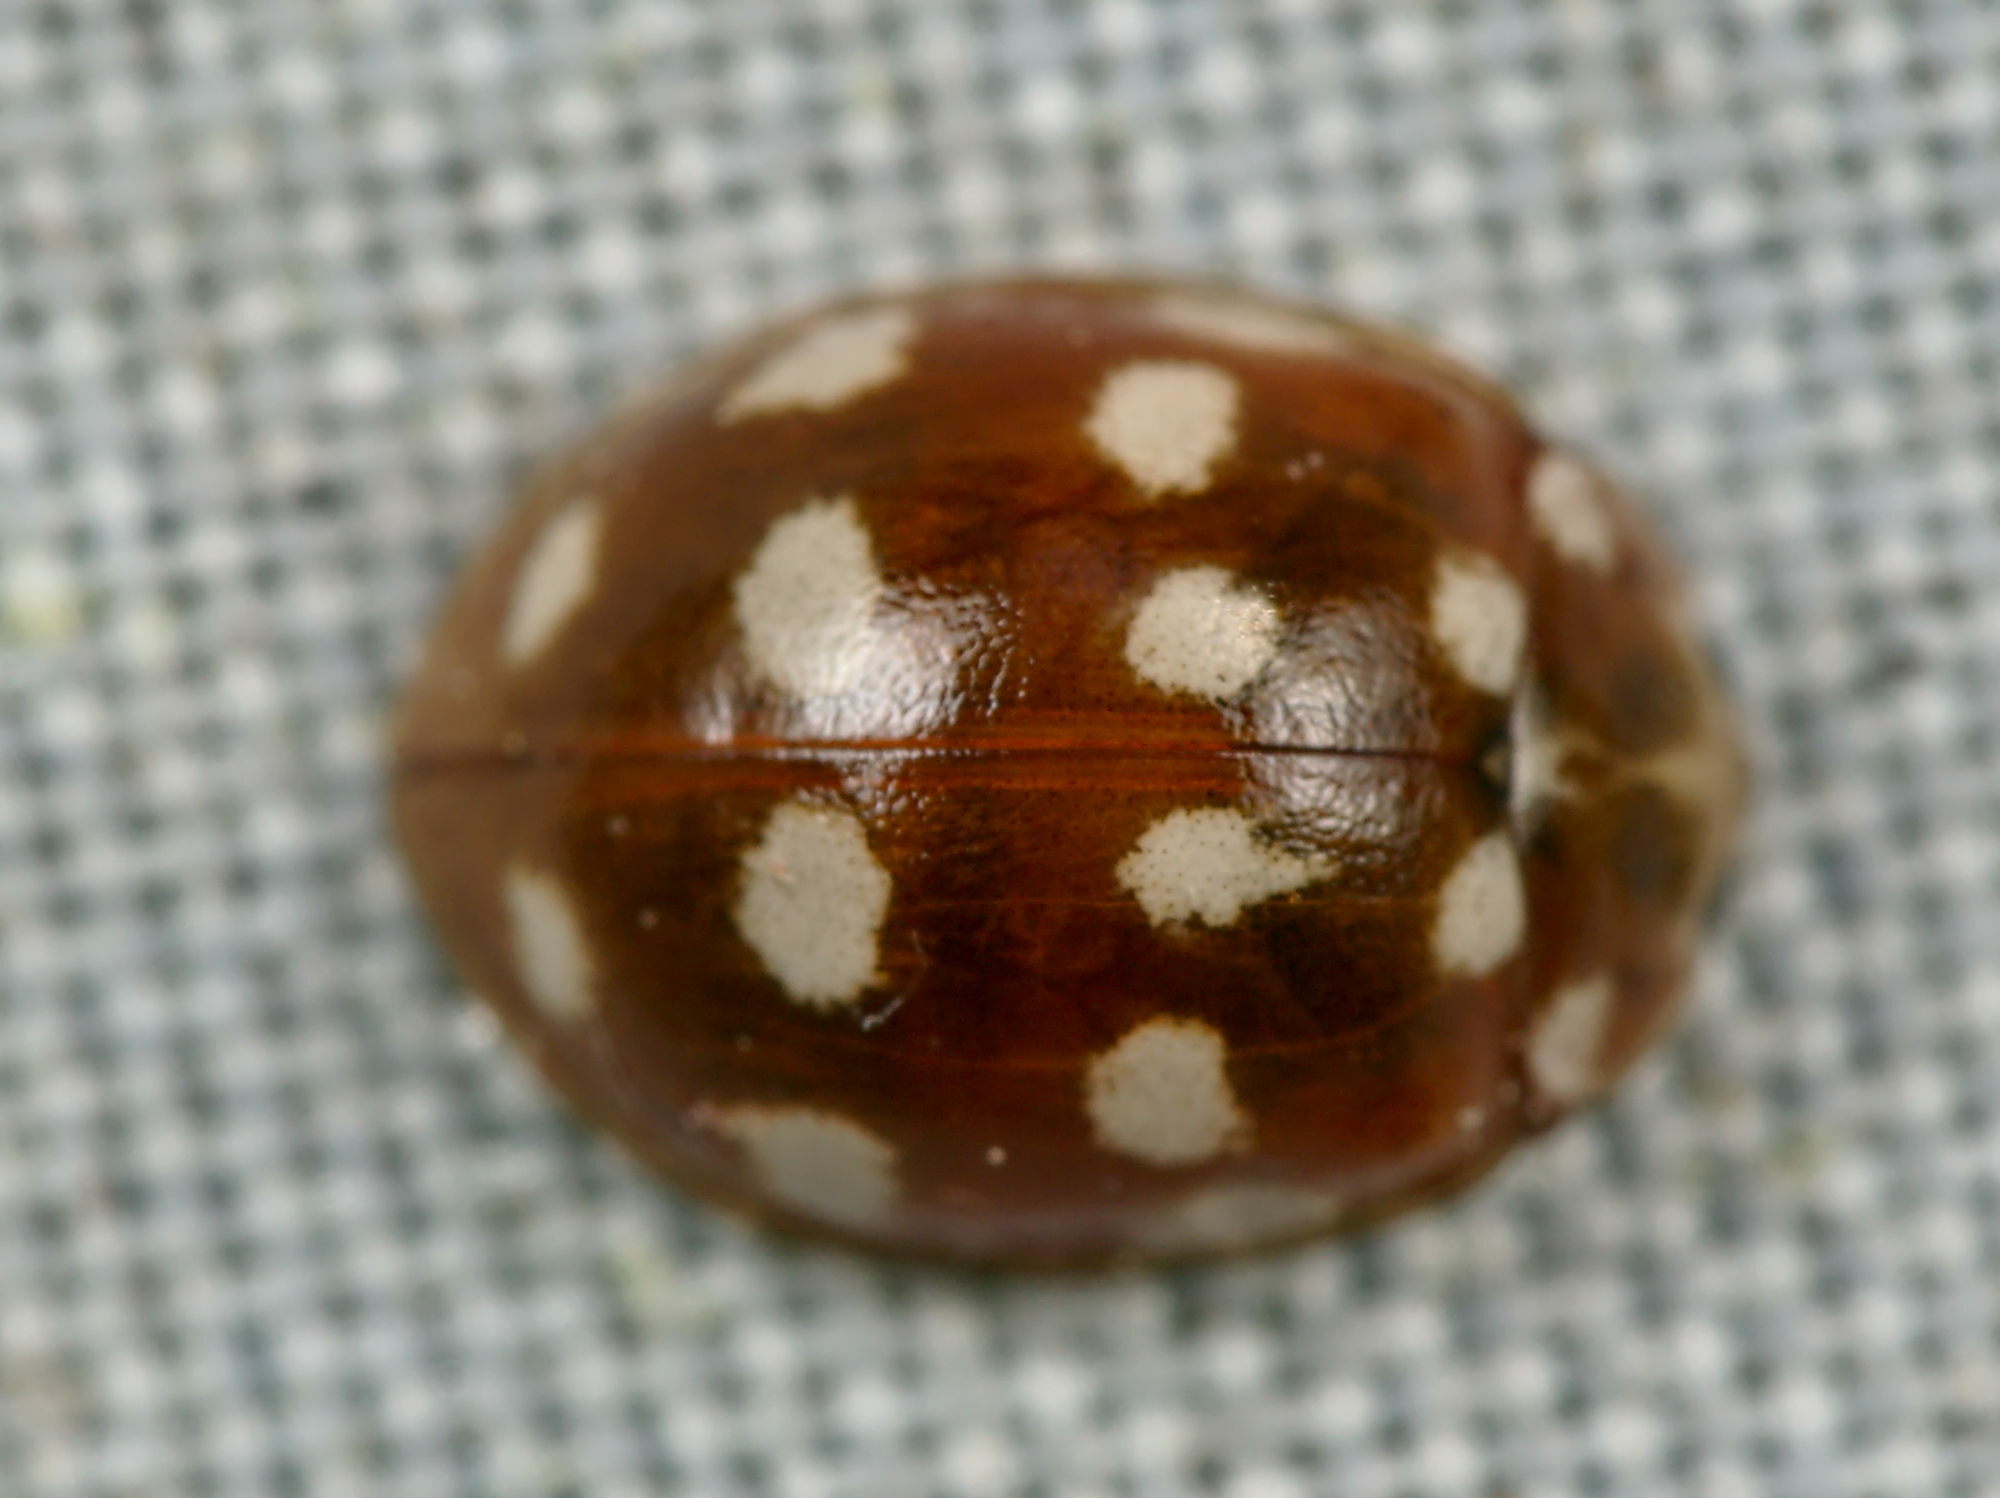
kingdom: Animalia
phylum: Arthropoda
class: Insecta
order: Coleoptera
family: Coccinellidae
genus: Calvia
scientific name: Calvia quatuordecimguttata
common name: Cream-spot ladybird
